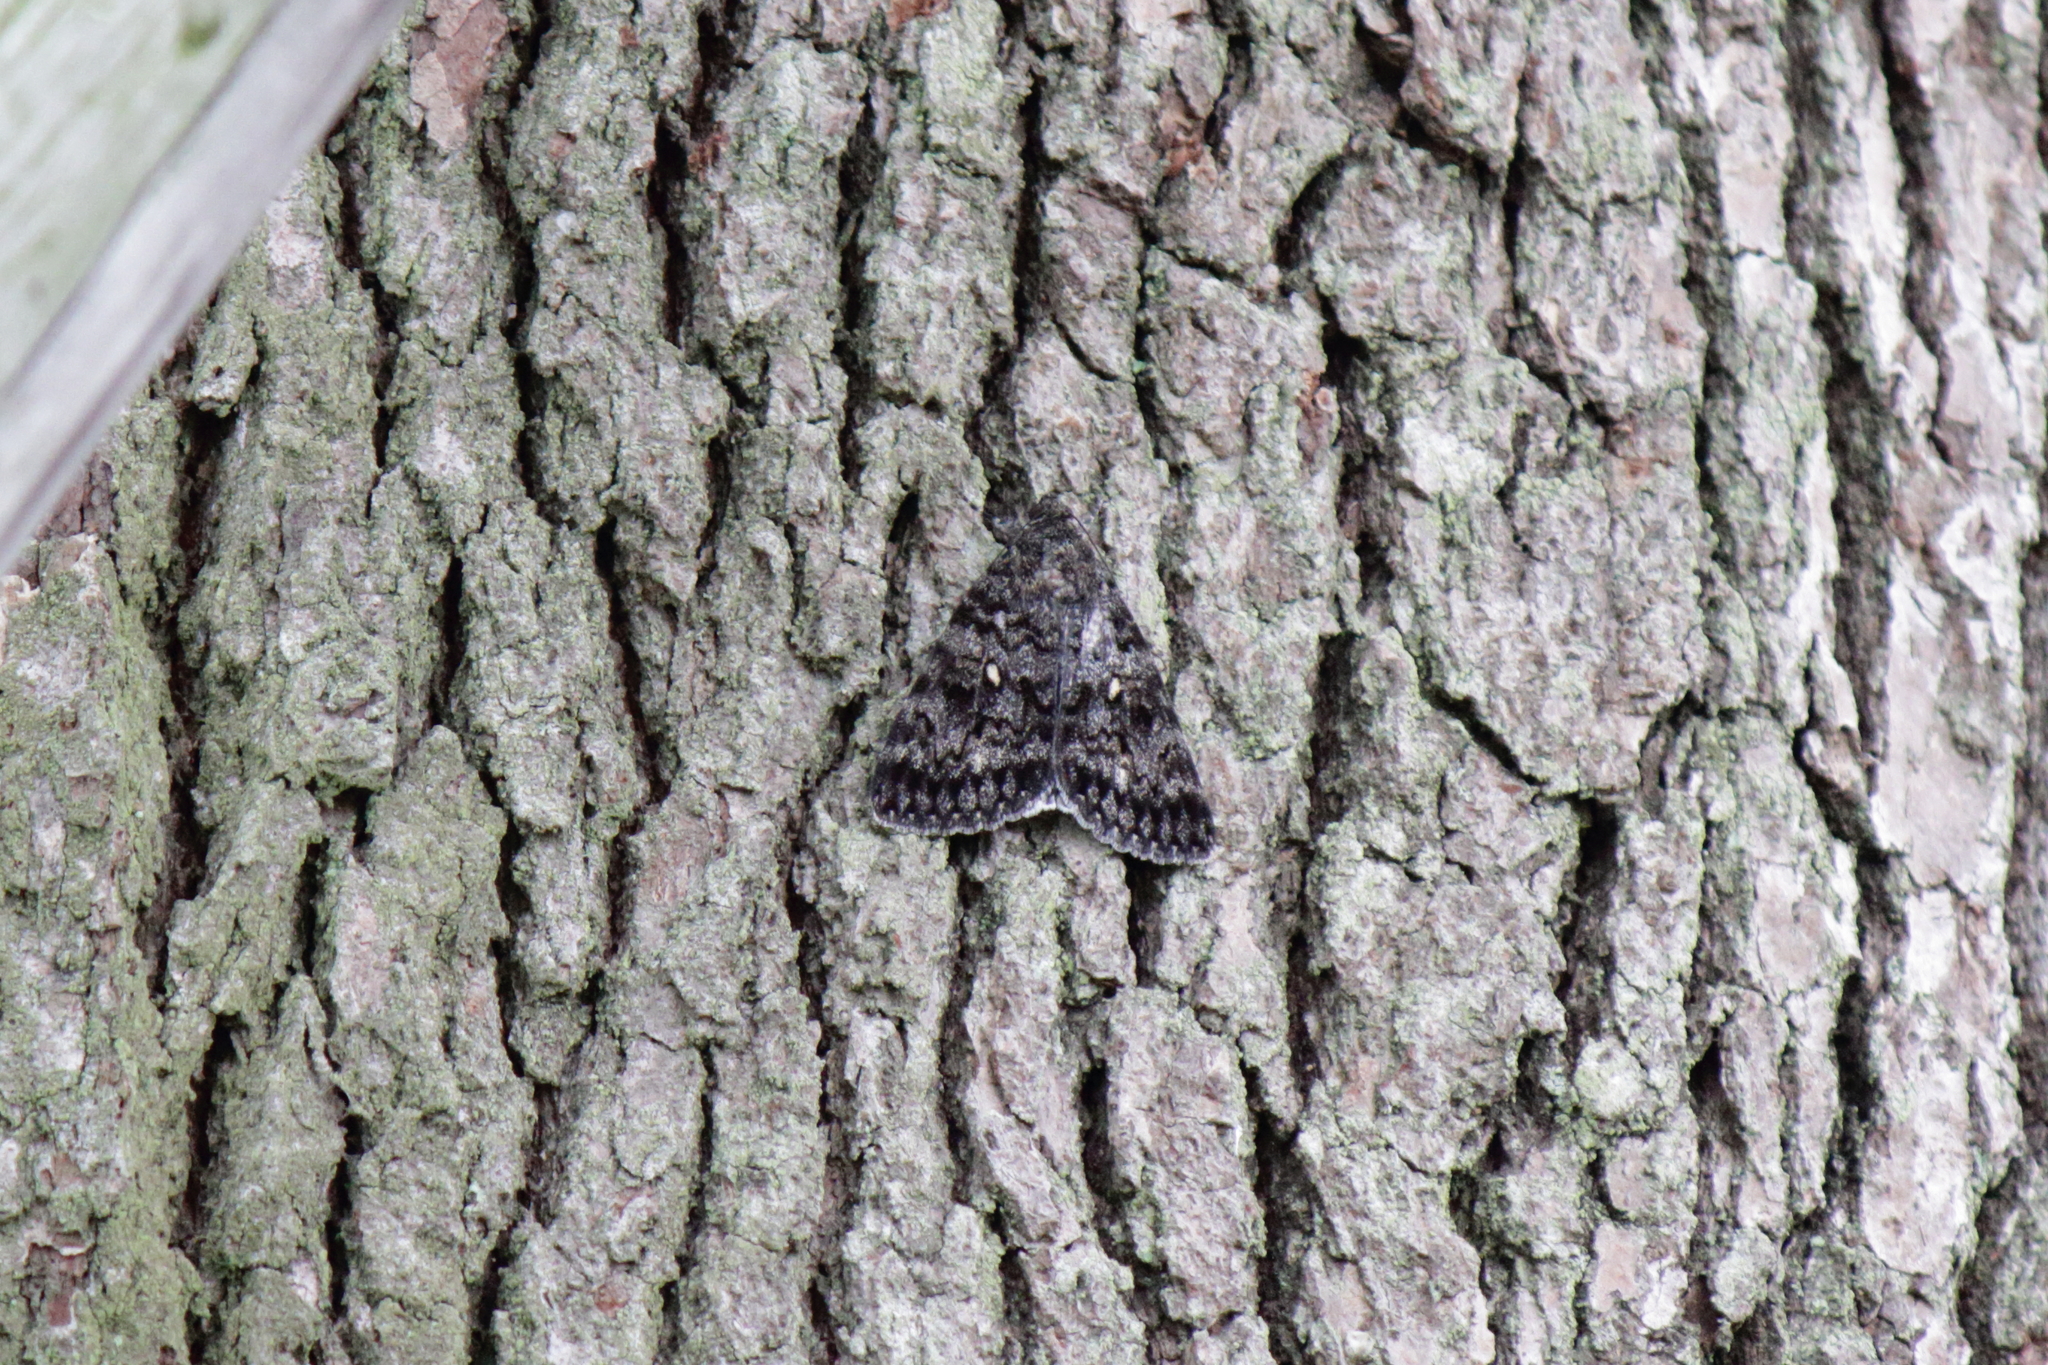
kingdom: Animalia
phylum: Arthropoda
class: Insecta
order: Lepidoptera
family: Erebidae
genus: Catocala
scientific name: Catocala actaea
